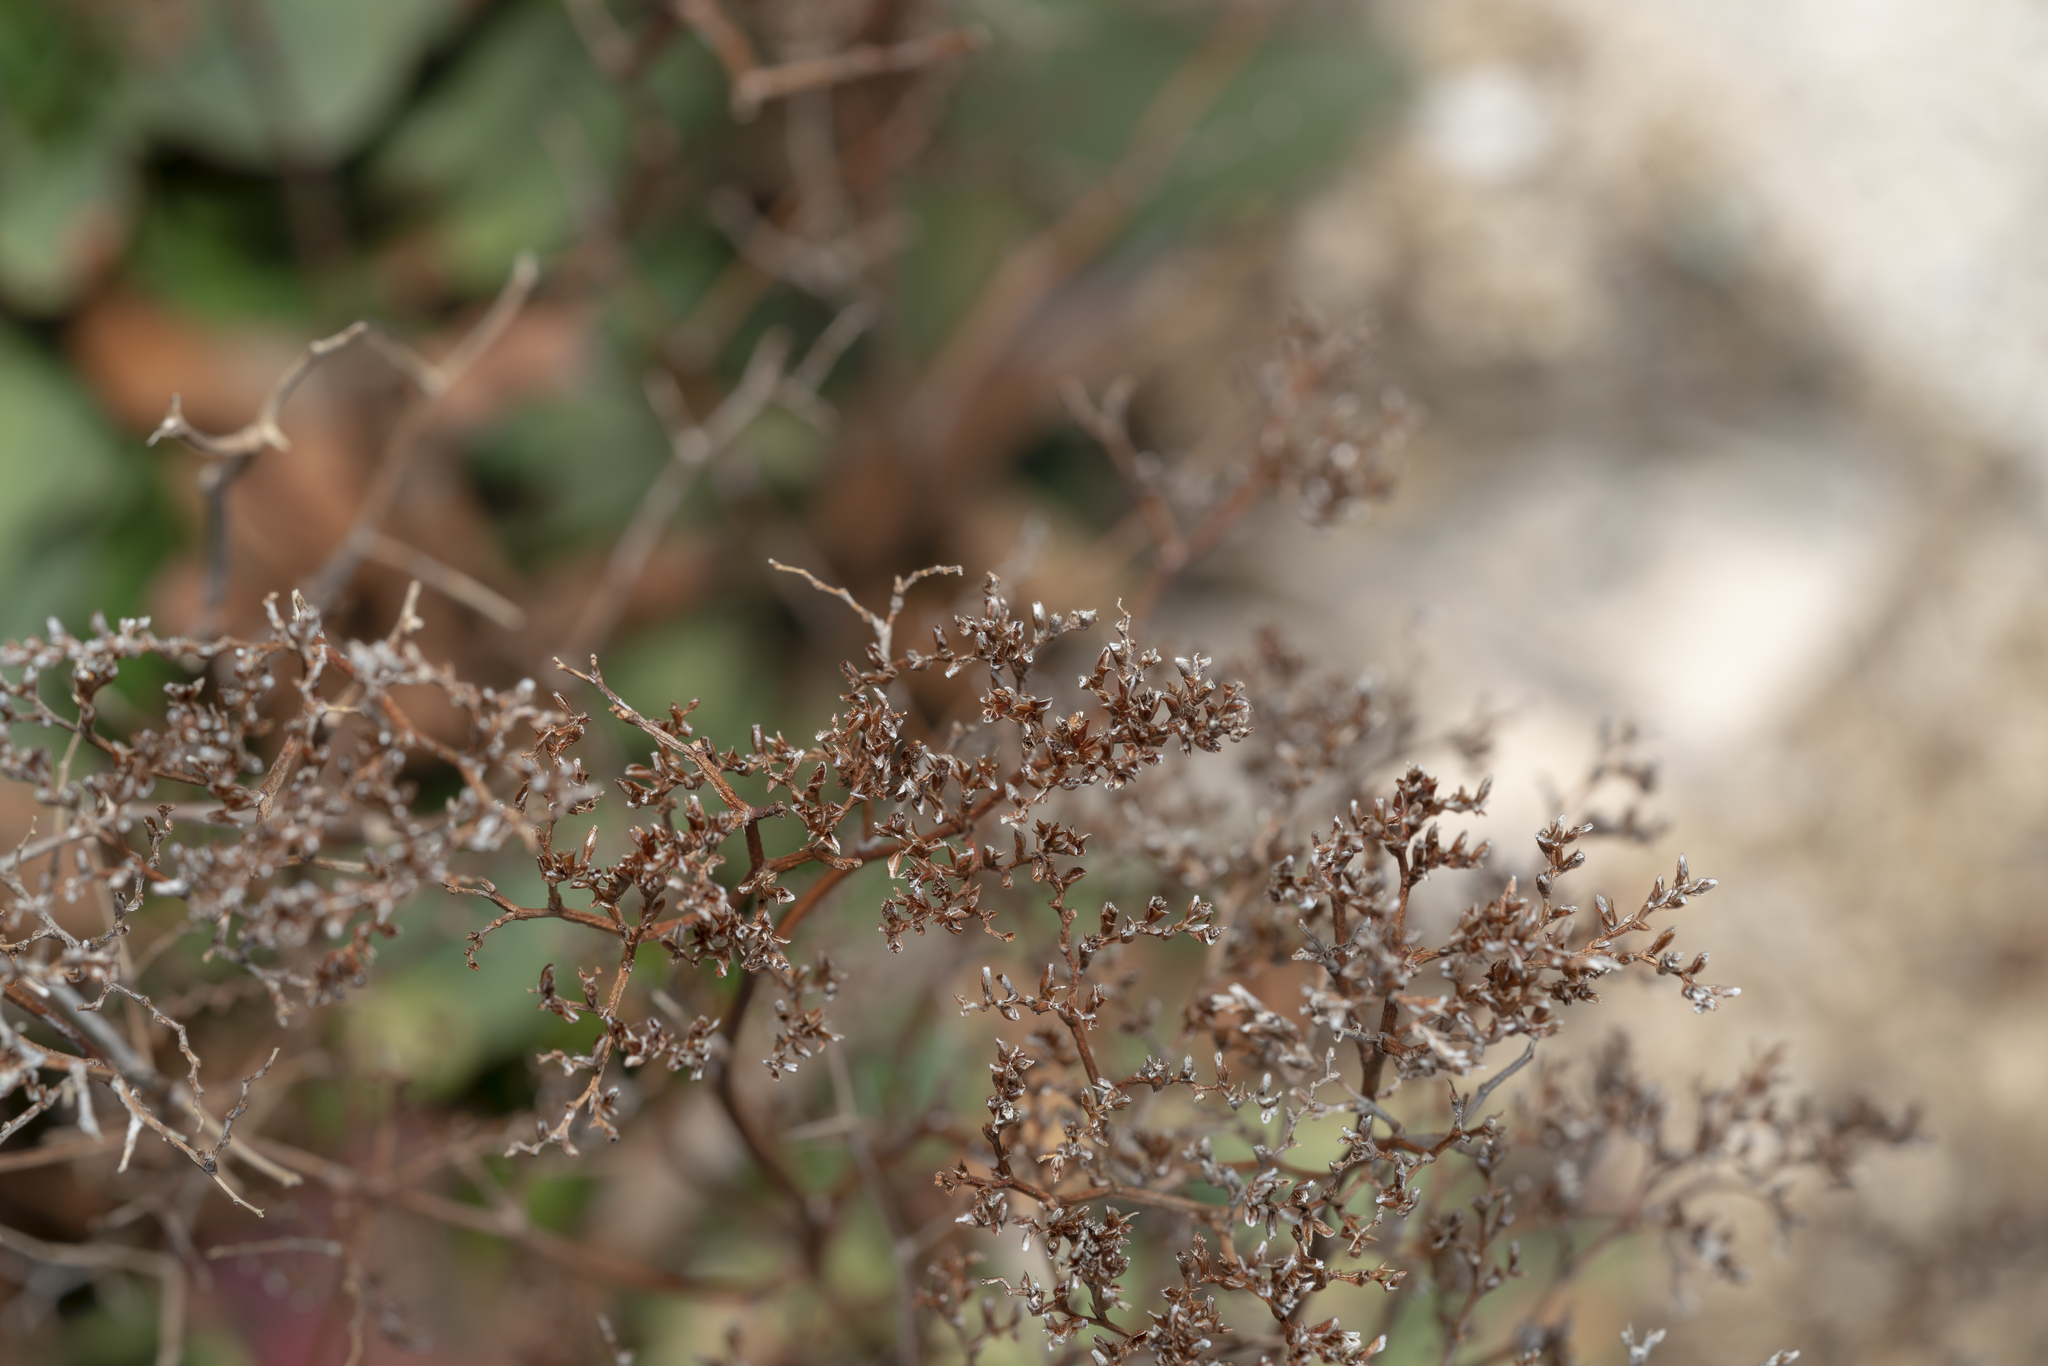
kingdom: Plantae
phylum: Tracheophyta
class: Magnoliopsida
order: Caryophyllales
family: Plumbaginaceae
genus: Limonium
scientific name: Limonium hirsuticalyx
